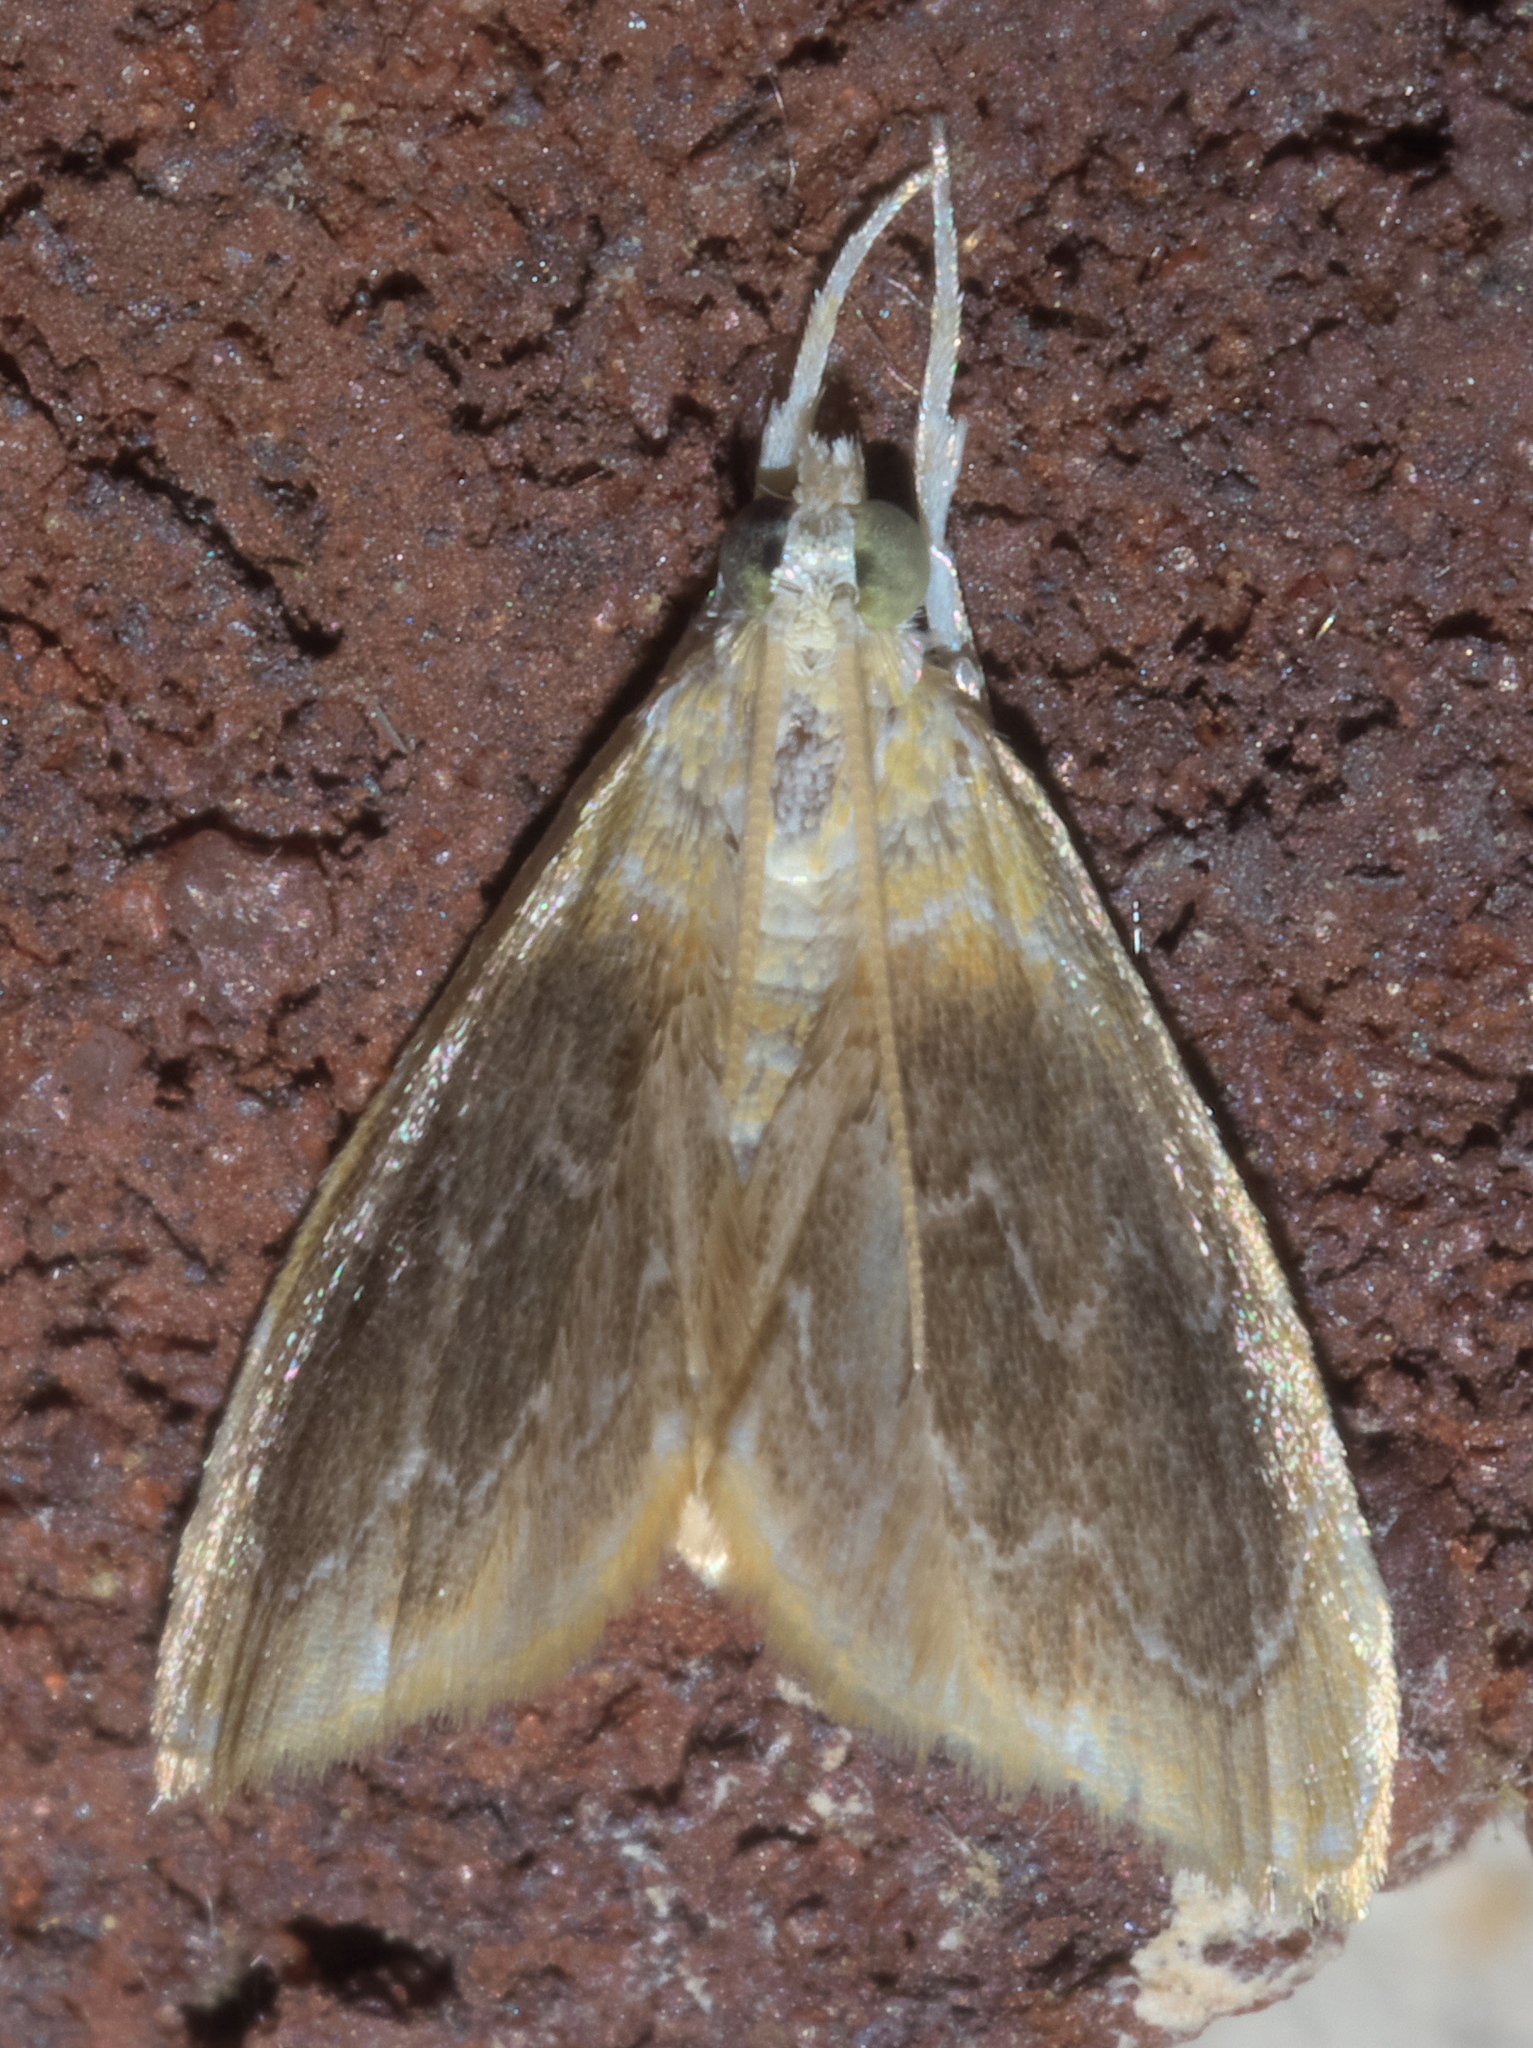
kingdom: Animalia
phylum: Arthropoda
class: Insecta
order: Lepidoptera
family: Crambidae
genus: Glaphyria
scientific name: Glaphyria cappsi
